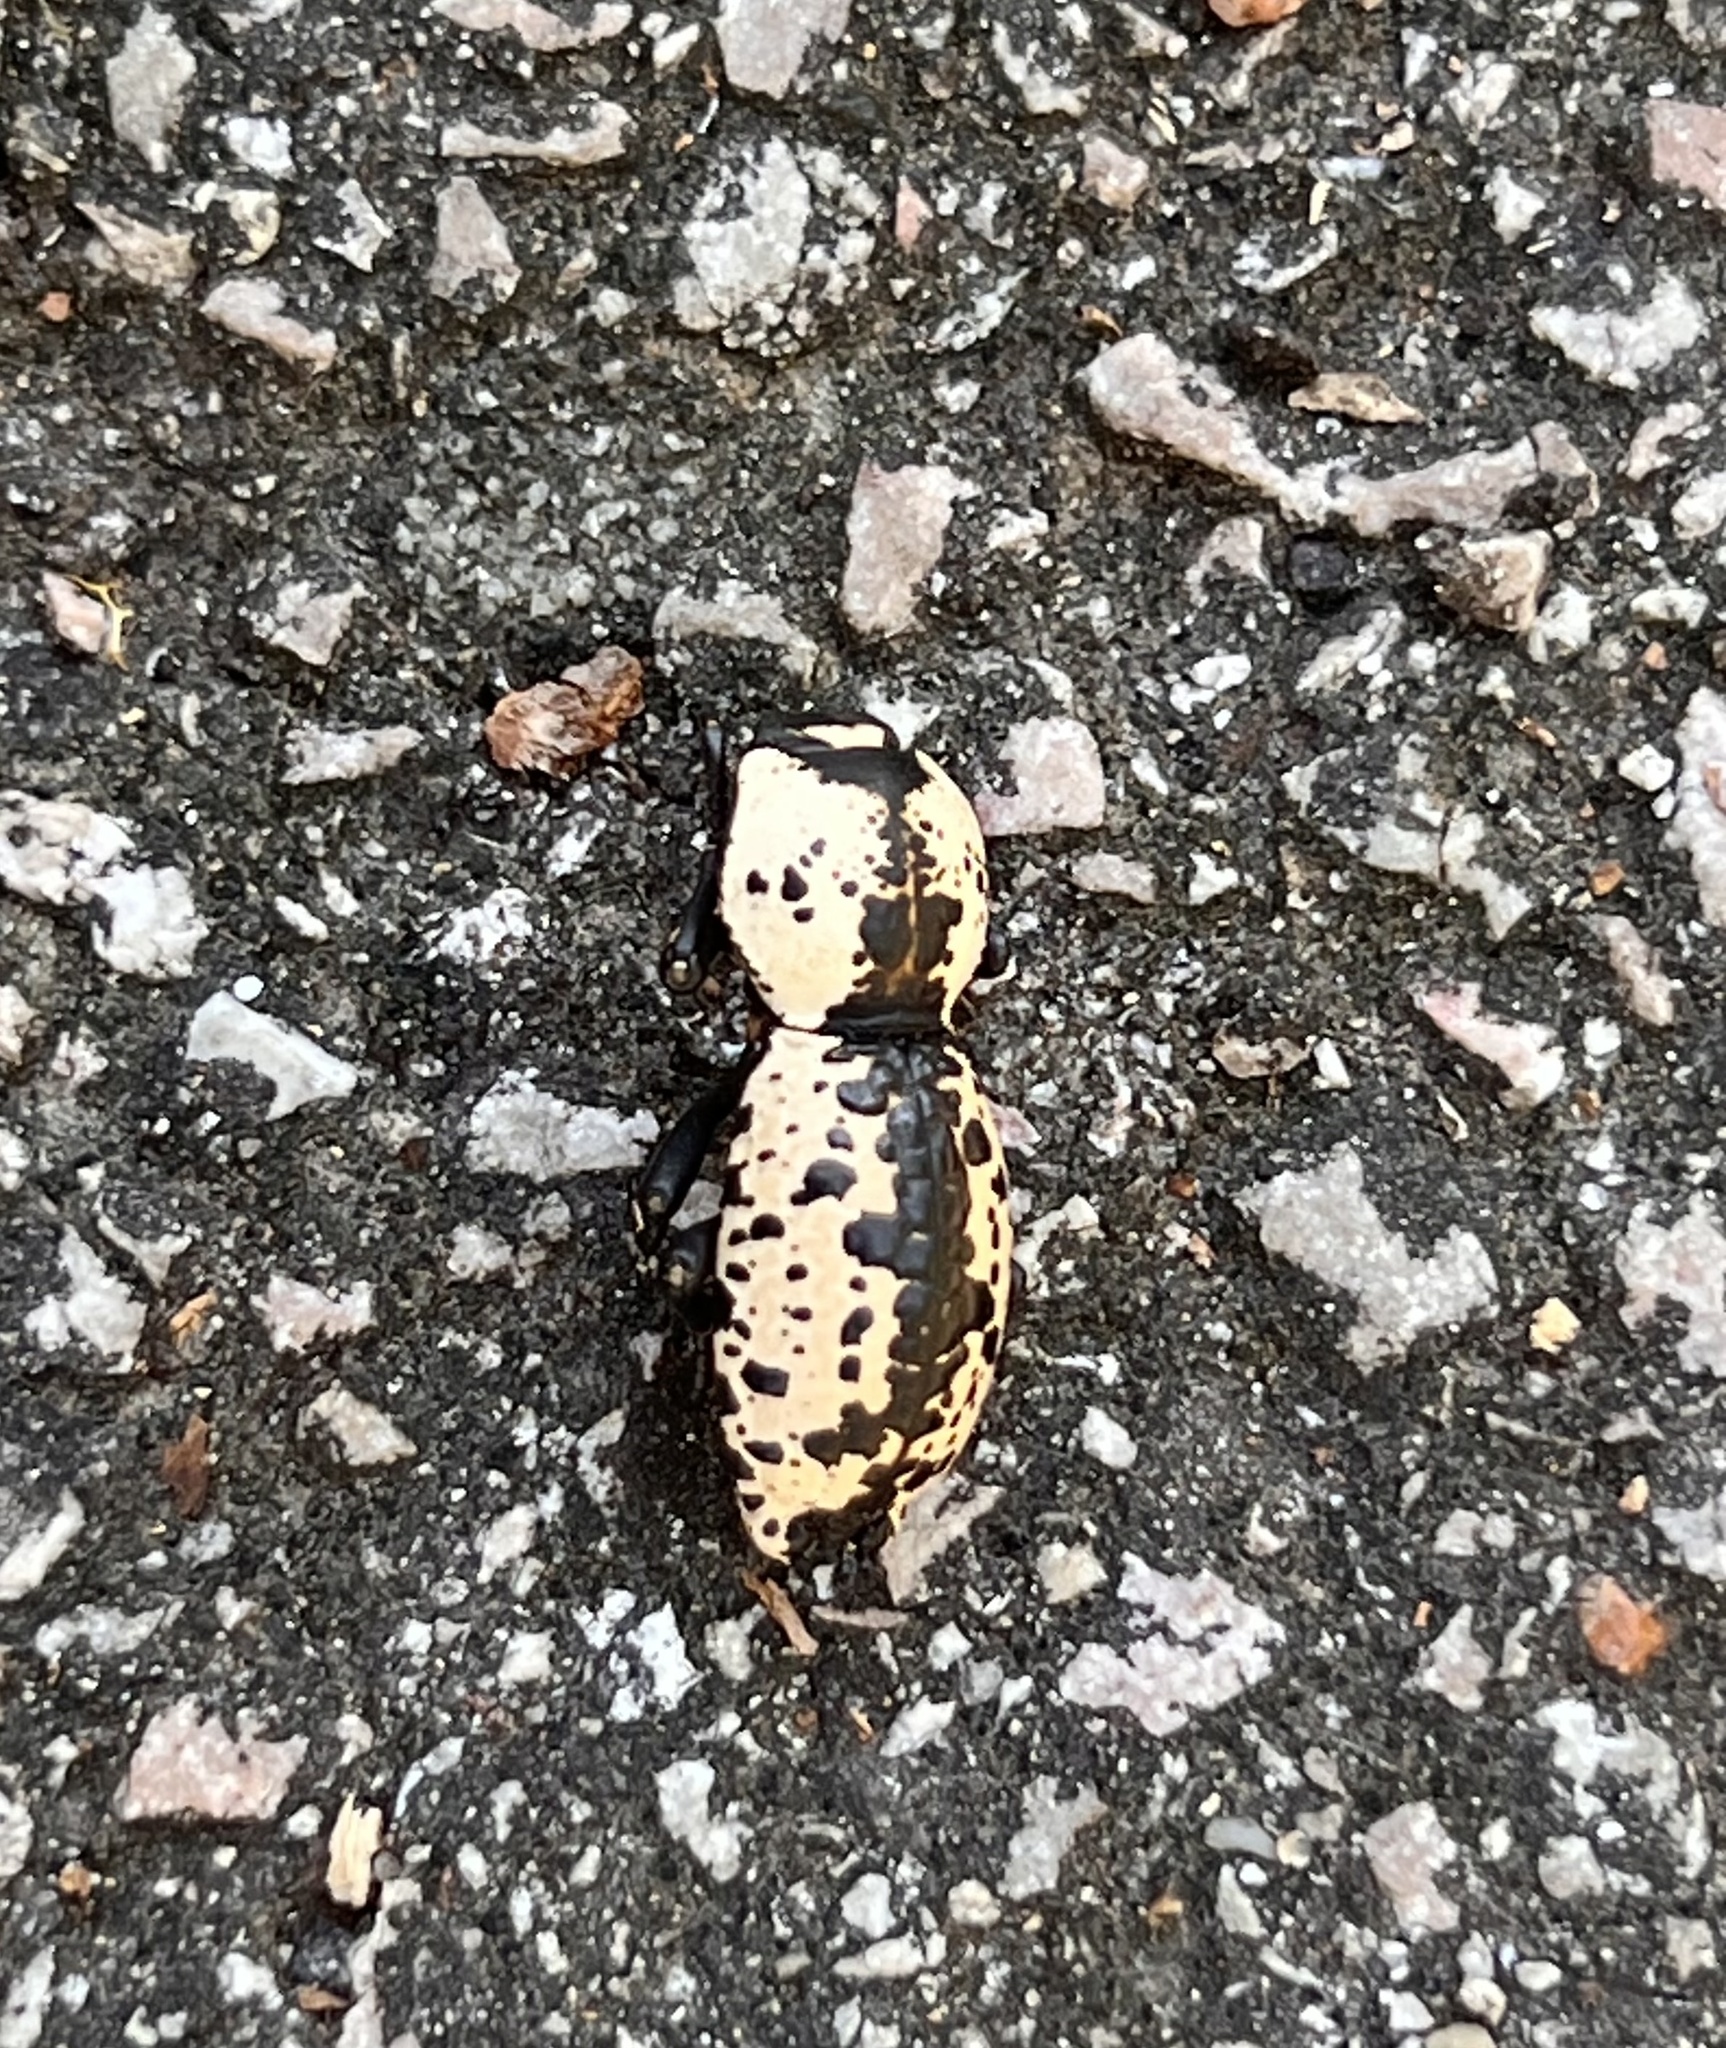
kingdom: Animalia
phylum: Arthropoda
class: Insecta
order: Coleoptera
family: Zopheridae
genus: Zopherus
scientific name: Zopherus nodulosus
